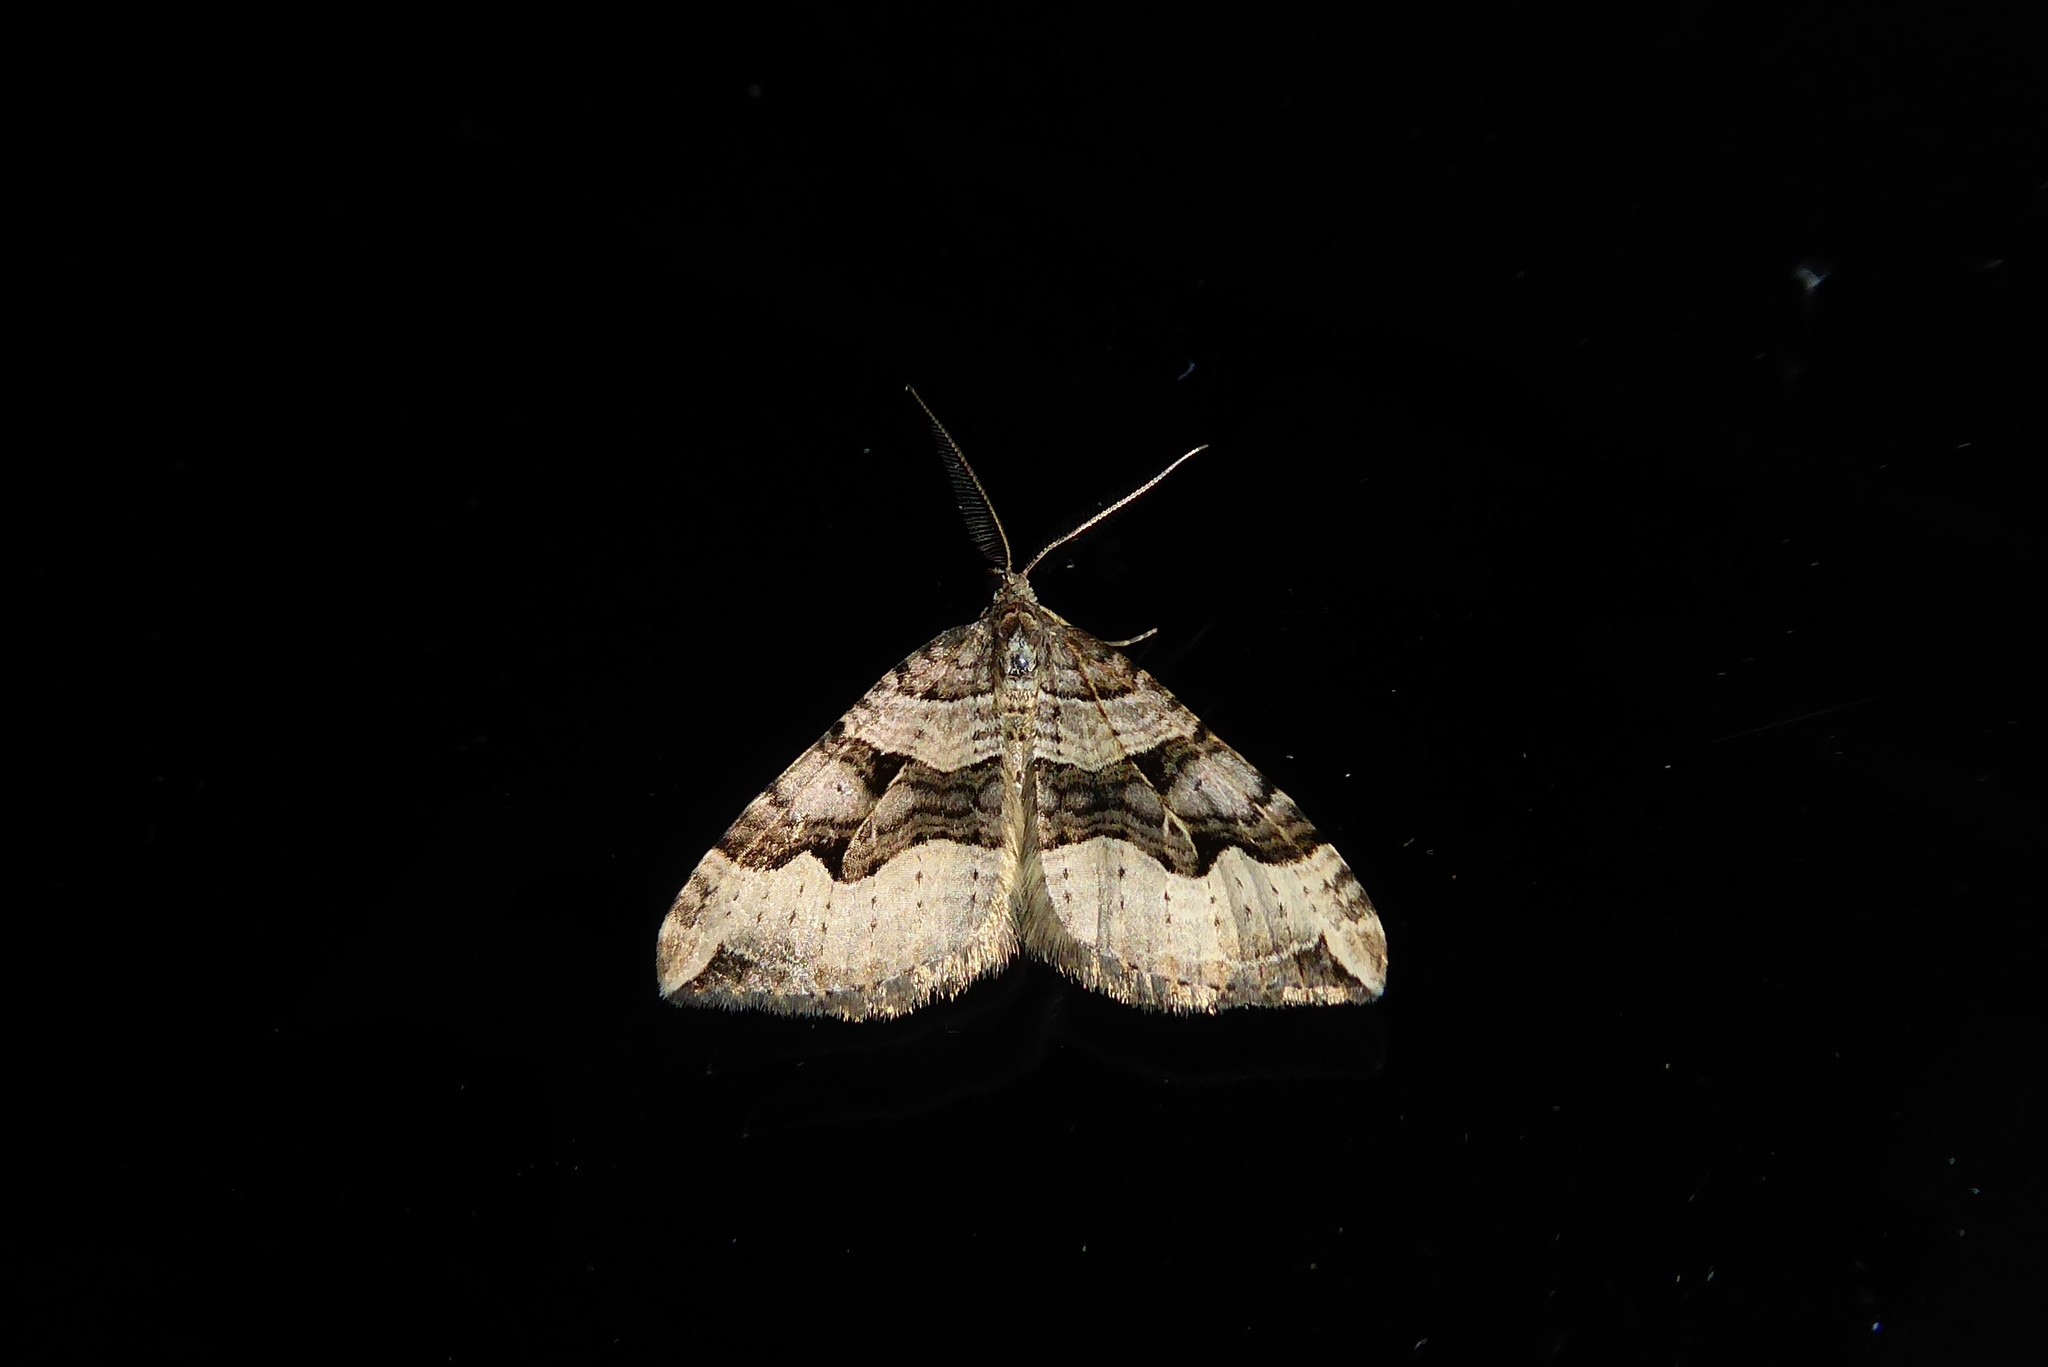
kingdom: Animalia
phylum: Arthropoda
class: Insecta
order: Lepidoptera
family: Geometridae
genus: Xanthorhoe
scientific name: Xanthorhoe semifissata
